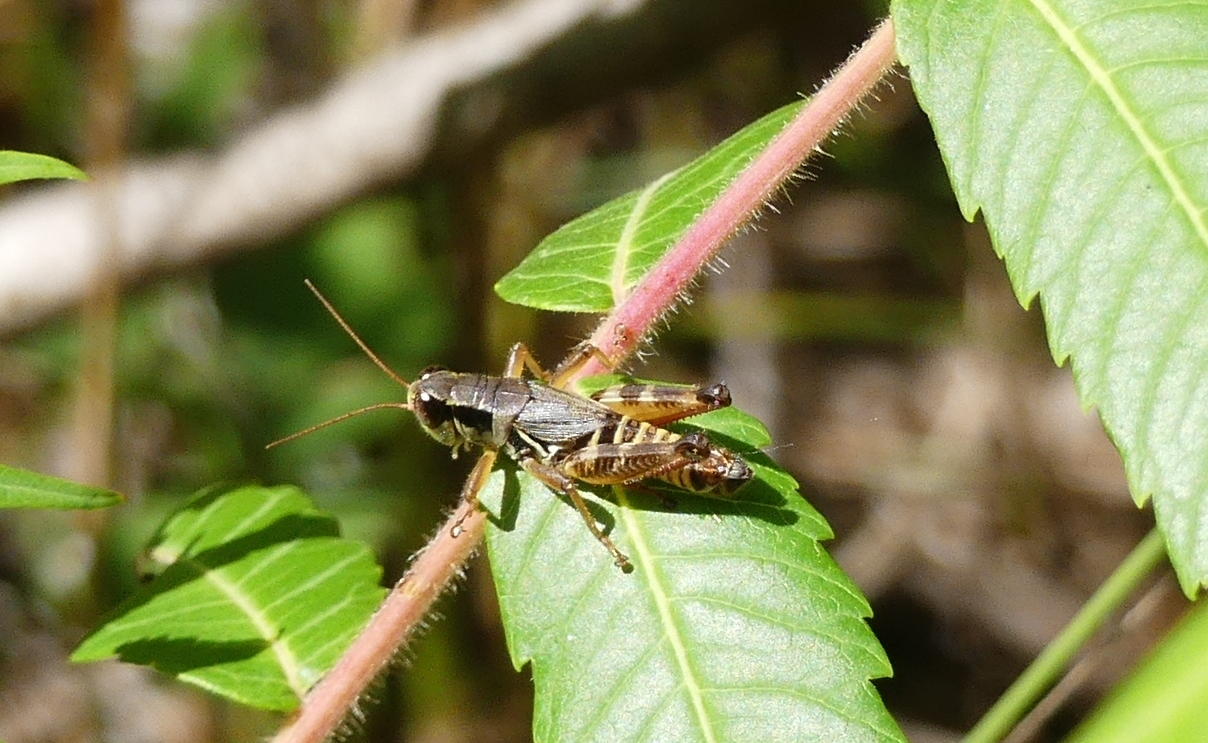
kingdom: Animalia
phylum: Arthropoda
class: Insecta
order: Orthoptera
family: Acrididae
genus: Melanoplus
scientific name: Melanoplus dawsoni
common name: Dawson grasshopper
